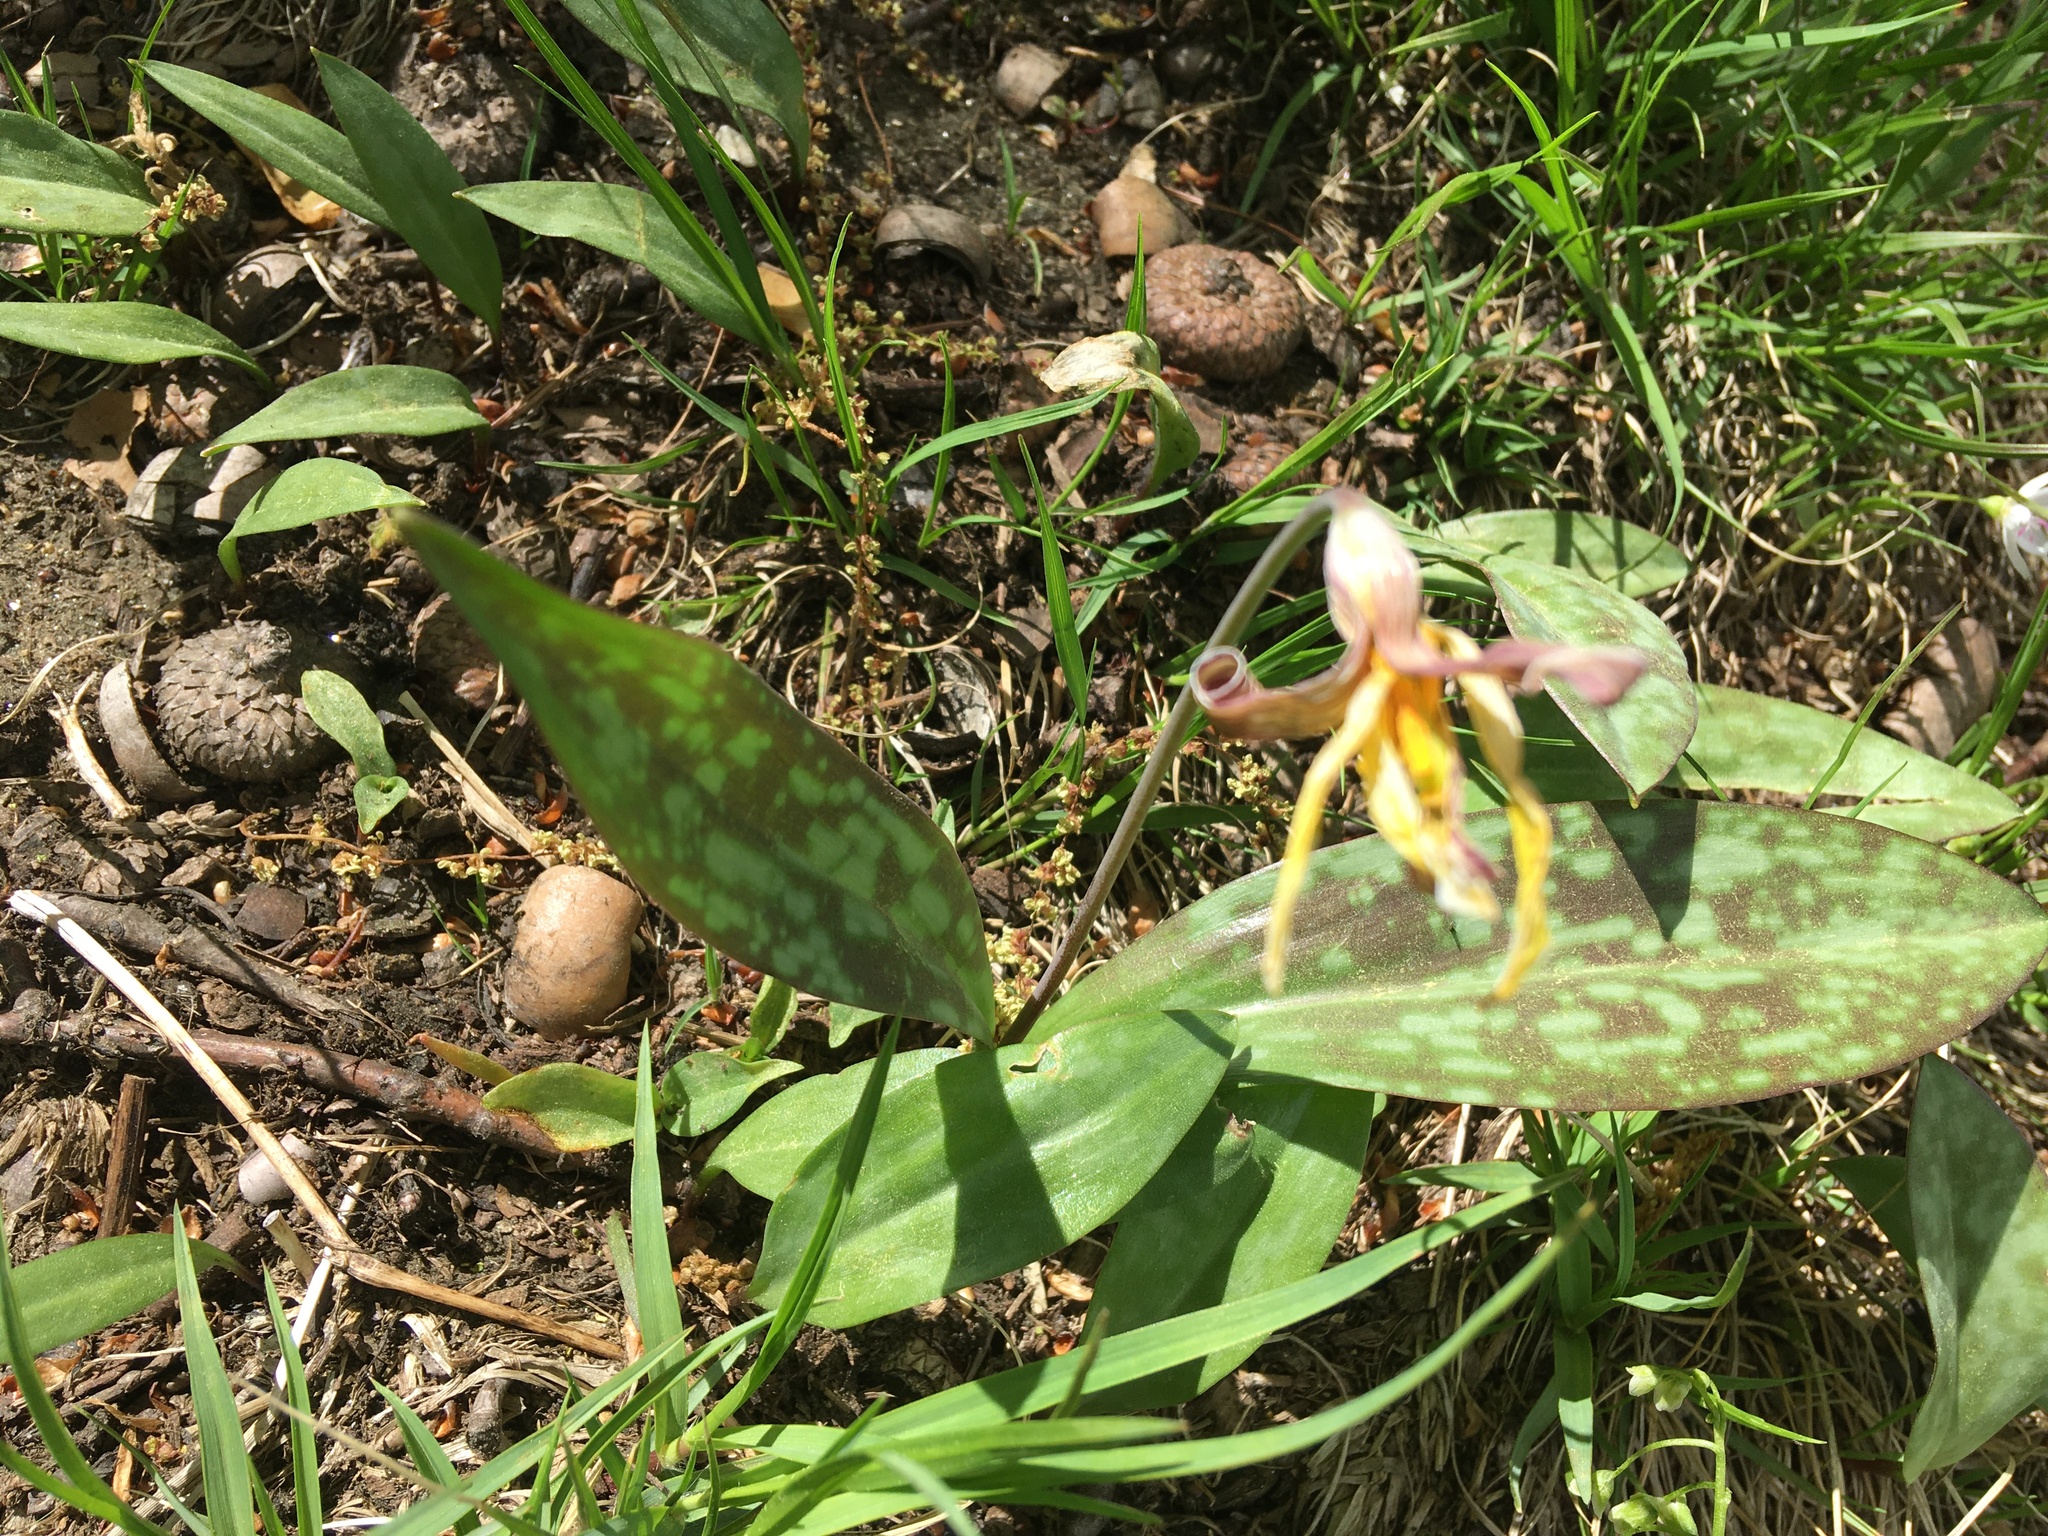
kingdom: Plantae
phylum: Tracheophyta
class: Liliopsida
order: Liliales
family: Liliaceae
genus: Erythronium
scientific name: Erythronium americanum
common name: Yellow adder's-tongue
